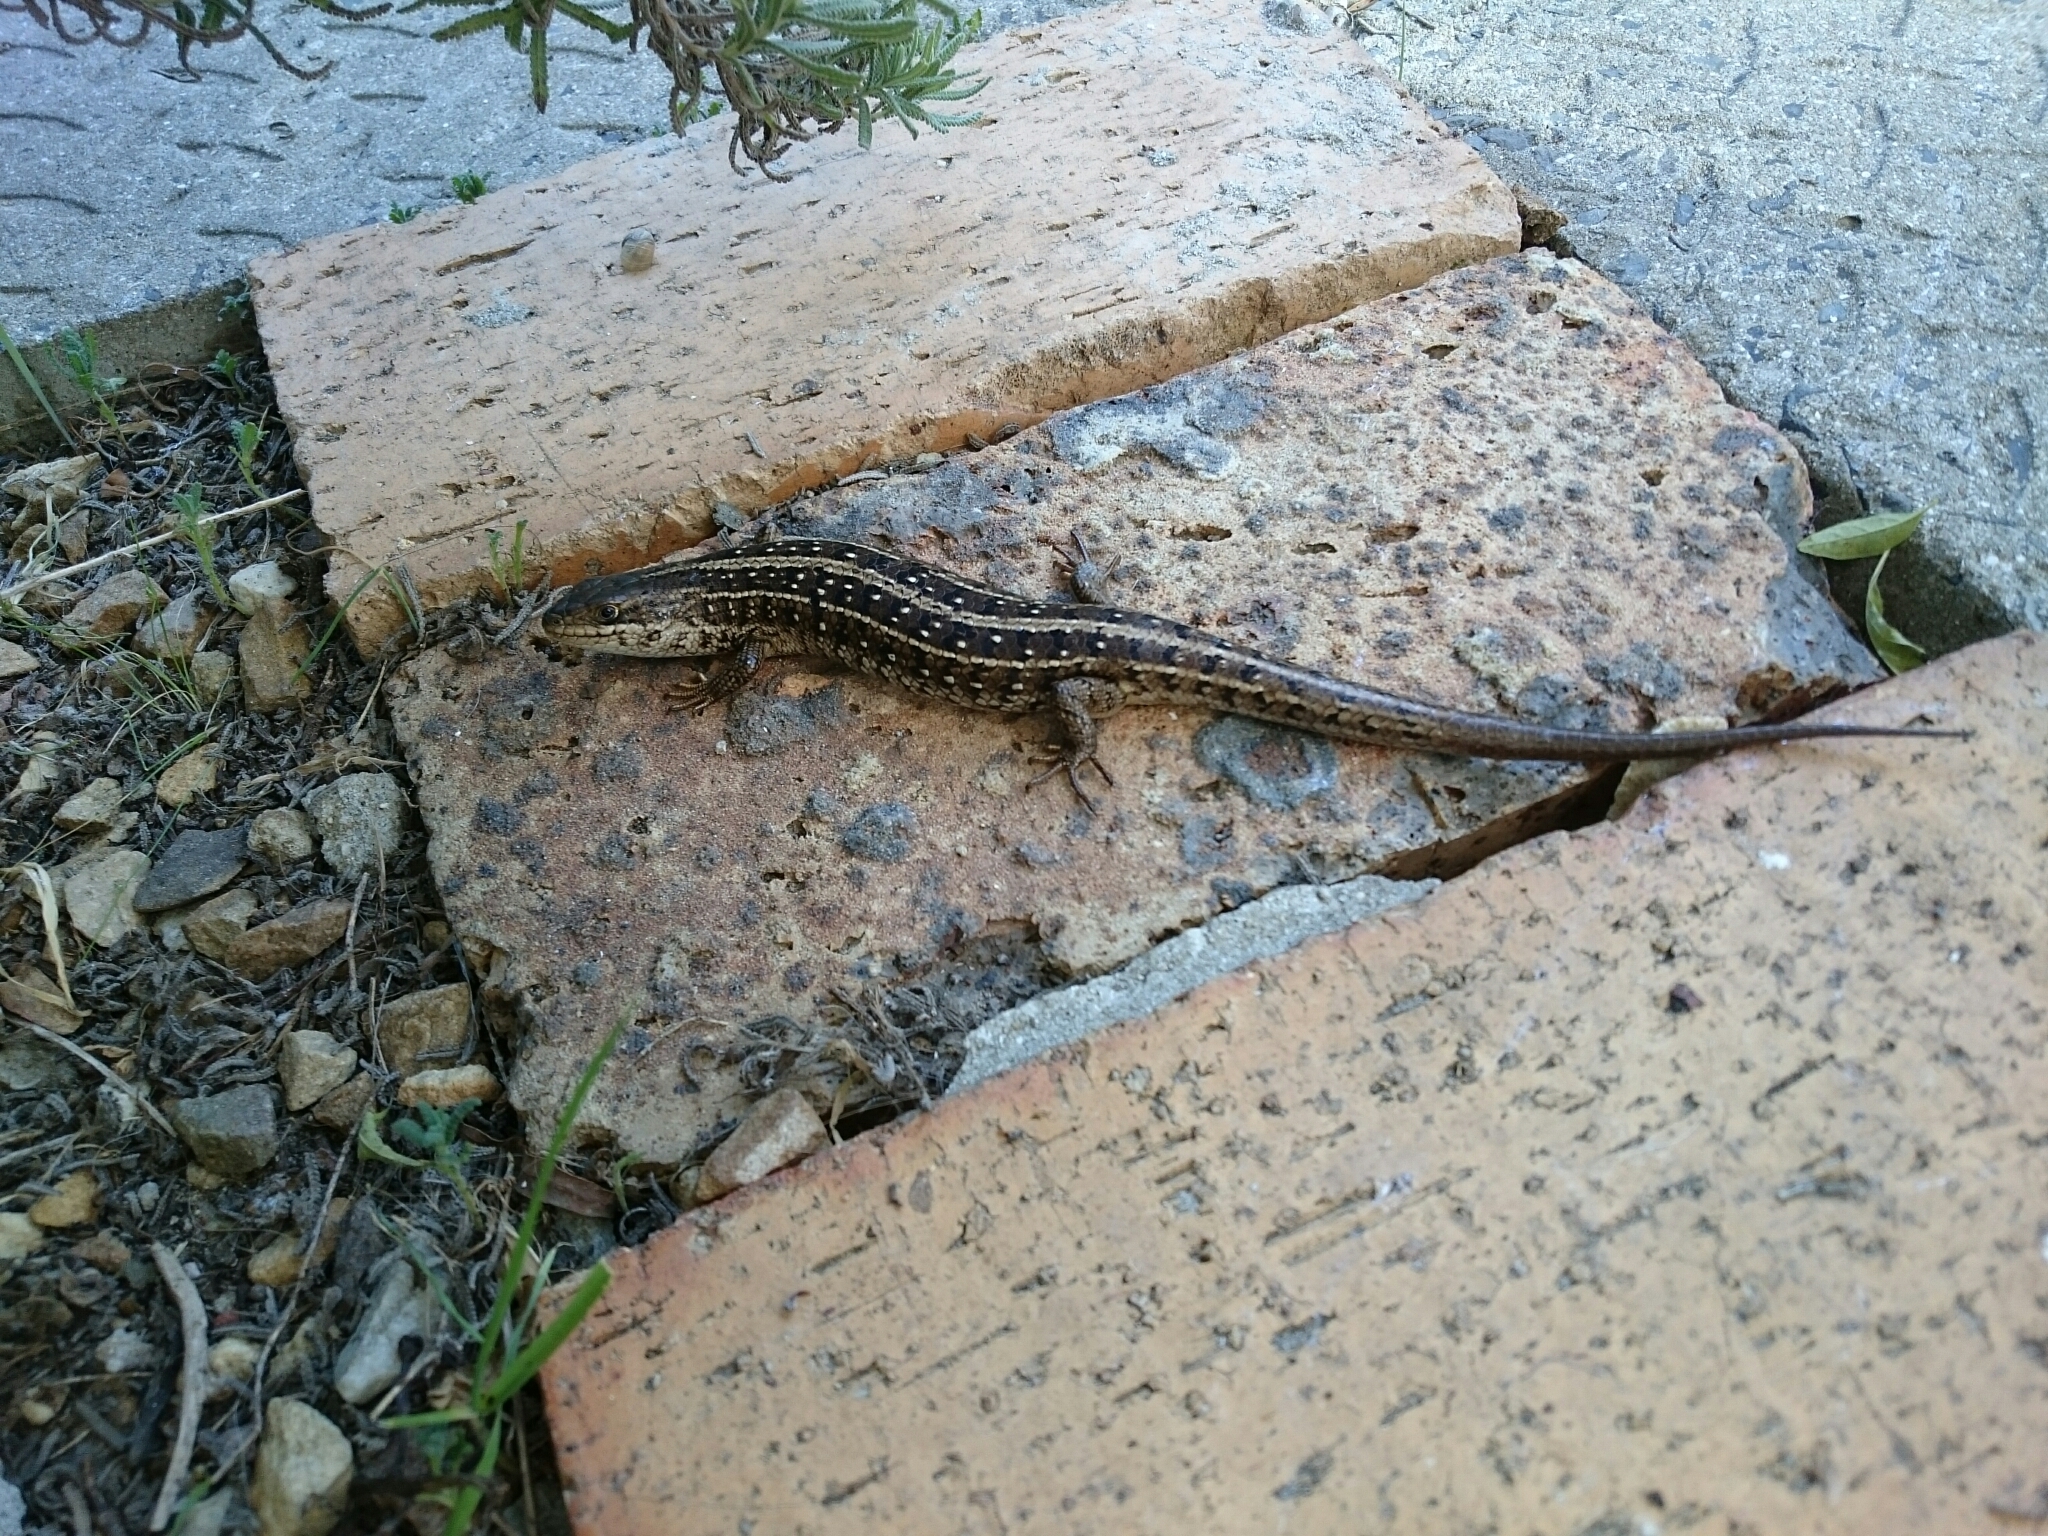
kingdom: Animalia
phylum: Chordata
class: Squamata
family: Scincidae
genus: Trachylepis
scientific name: Trachylepis capensis
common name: Cape skink
